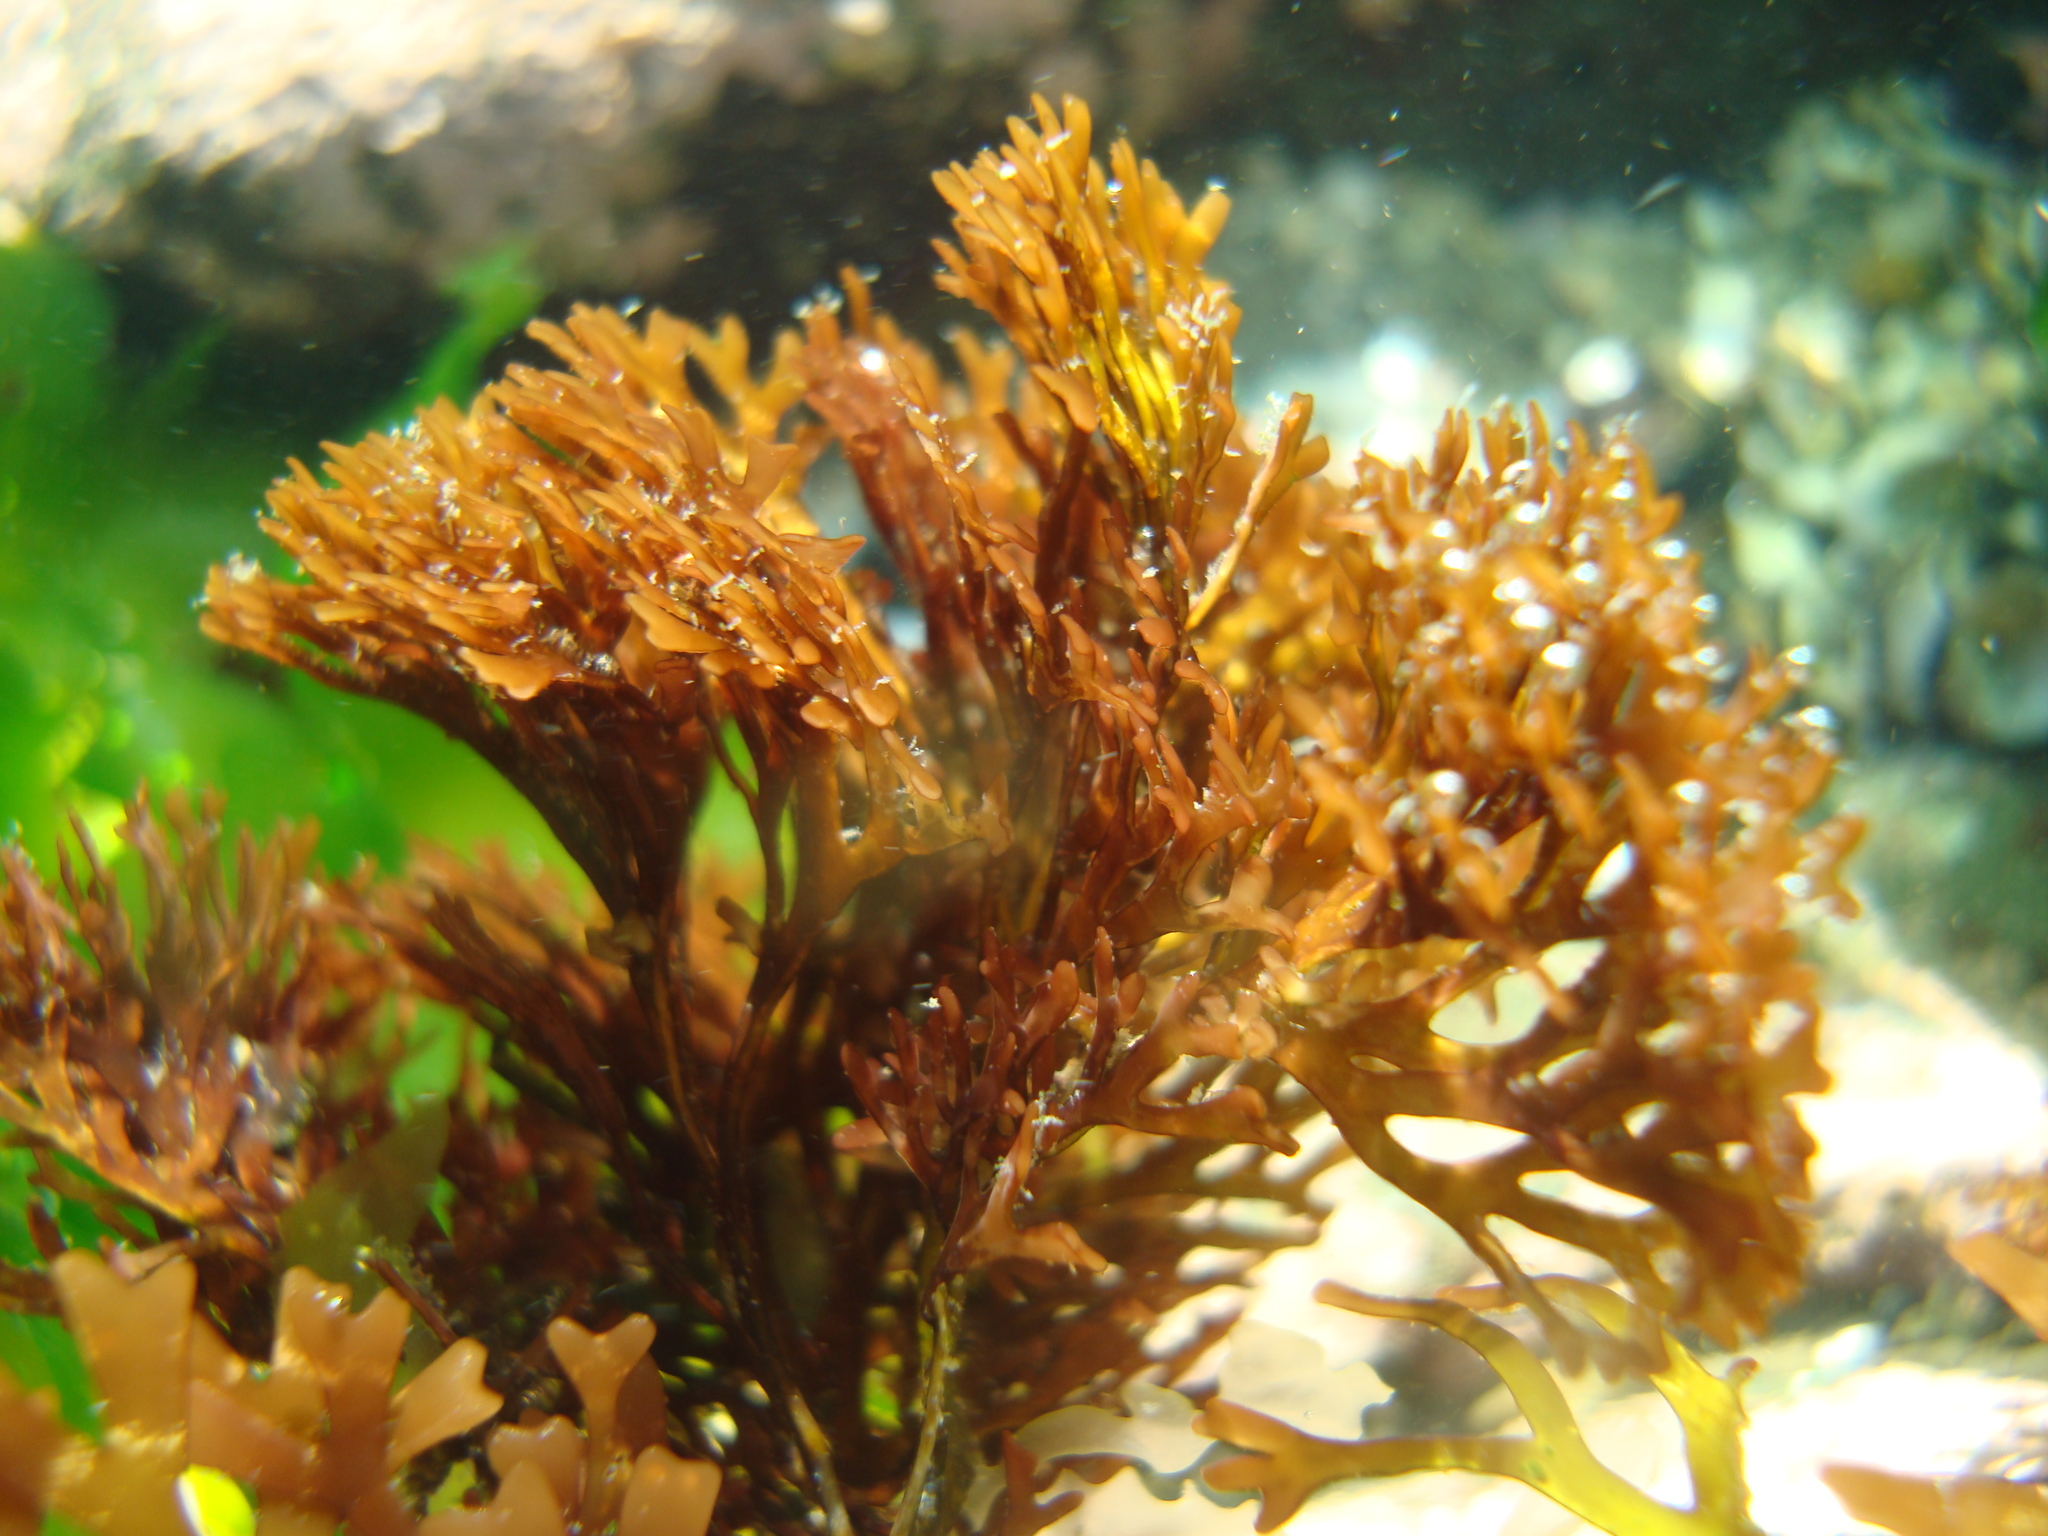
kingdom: Plantae
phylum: Rhodophyta
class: Florideophyceae
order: Gigartinales
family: Sarcodiaceae
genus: Trematocarpus
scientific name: Trematocarpus
